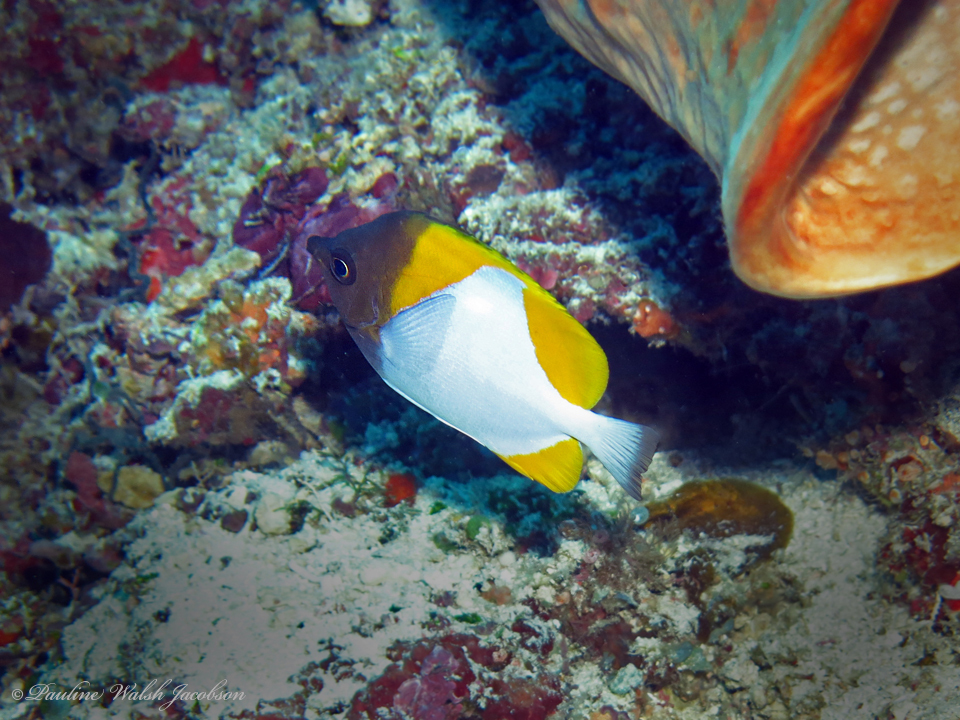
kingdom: Animalia
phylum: Chordata
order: Perciformes
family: Chaetodontidae
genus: Hemitaurichthys
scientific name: Hemitaurichthys polylepis
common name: Brushytoothed butterflyfish
